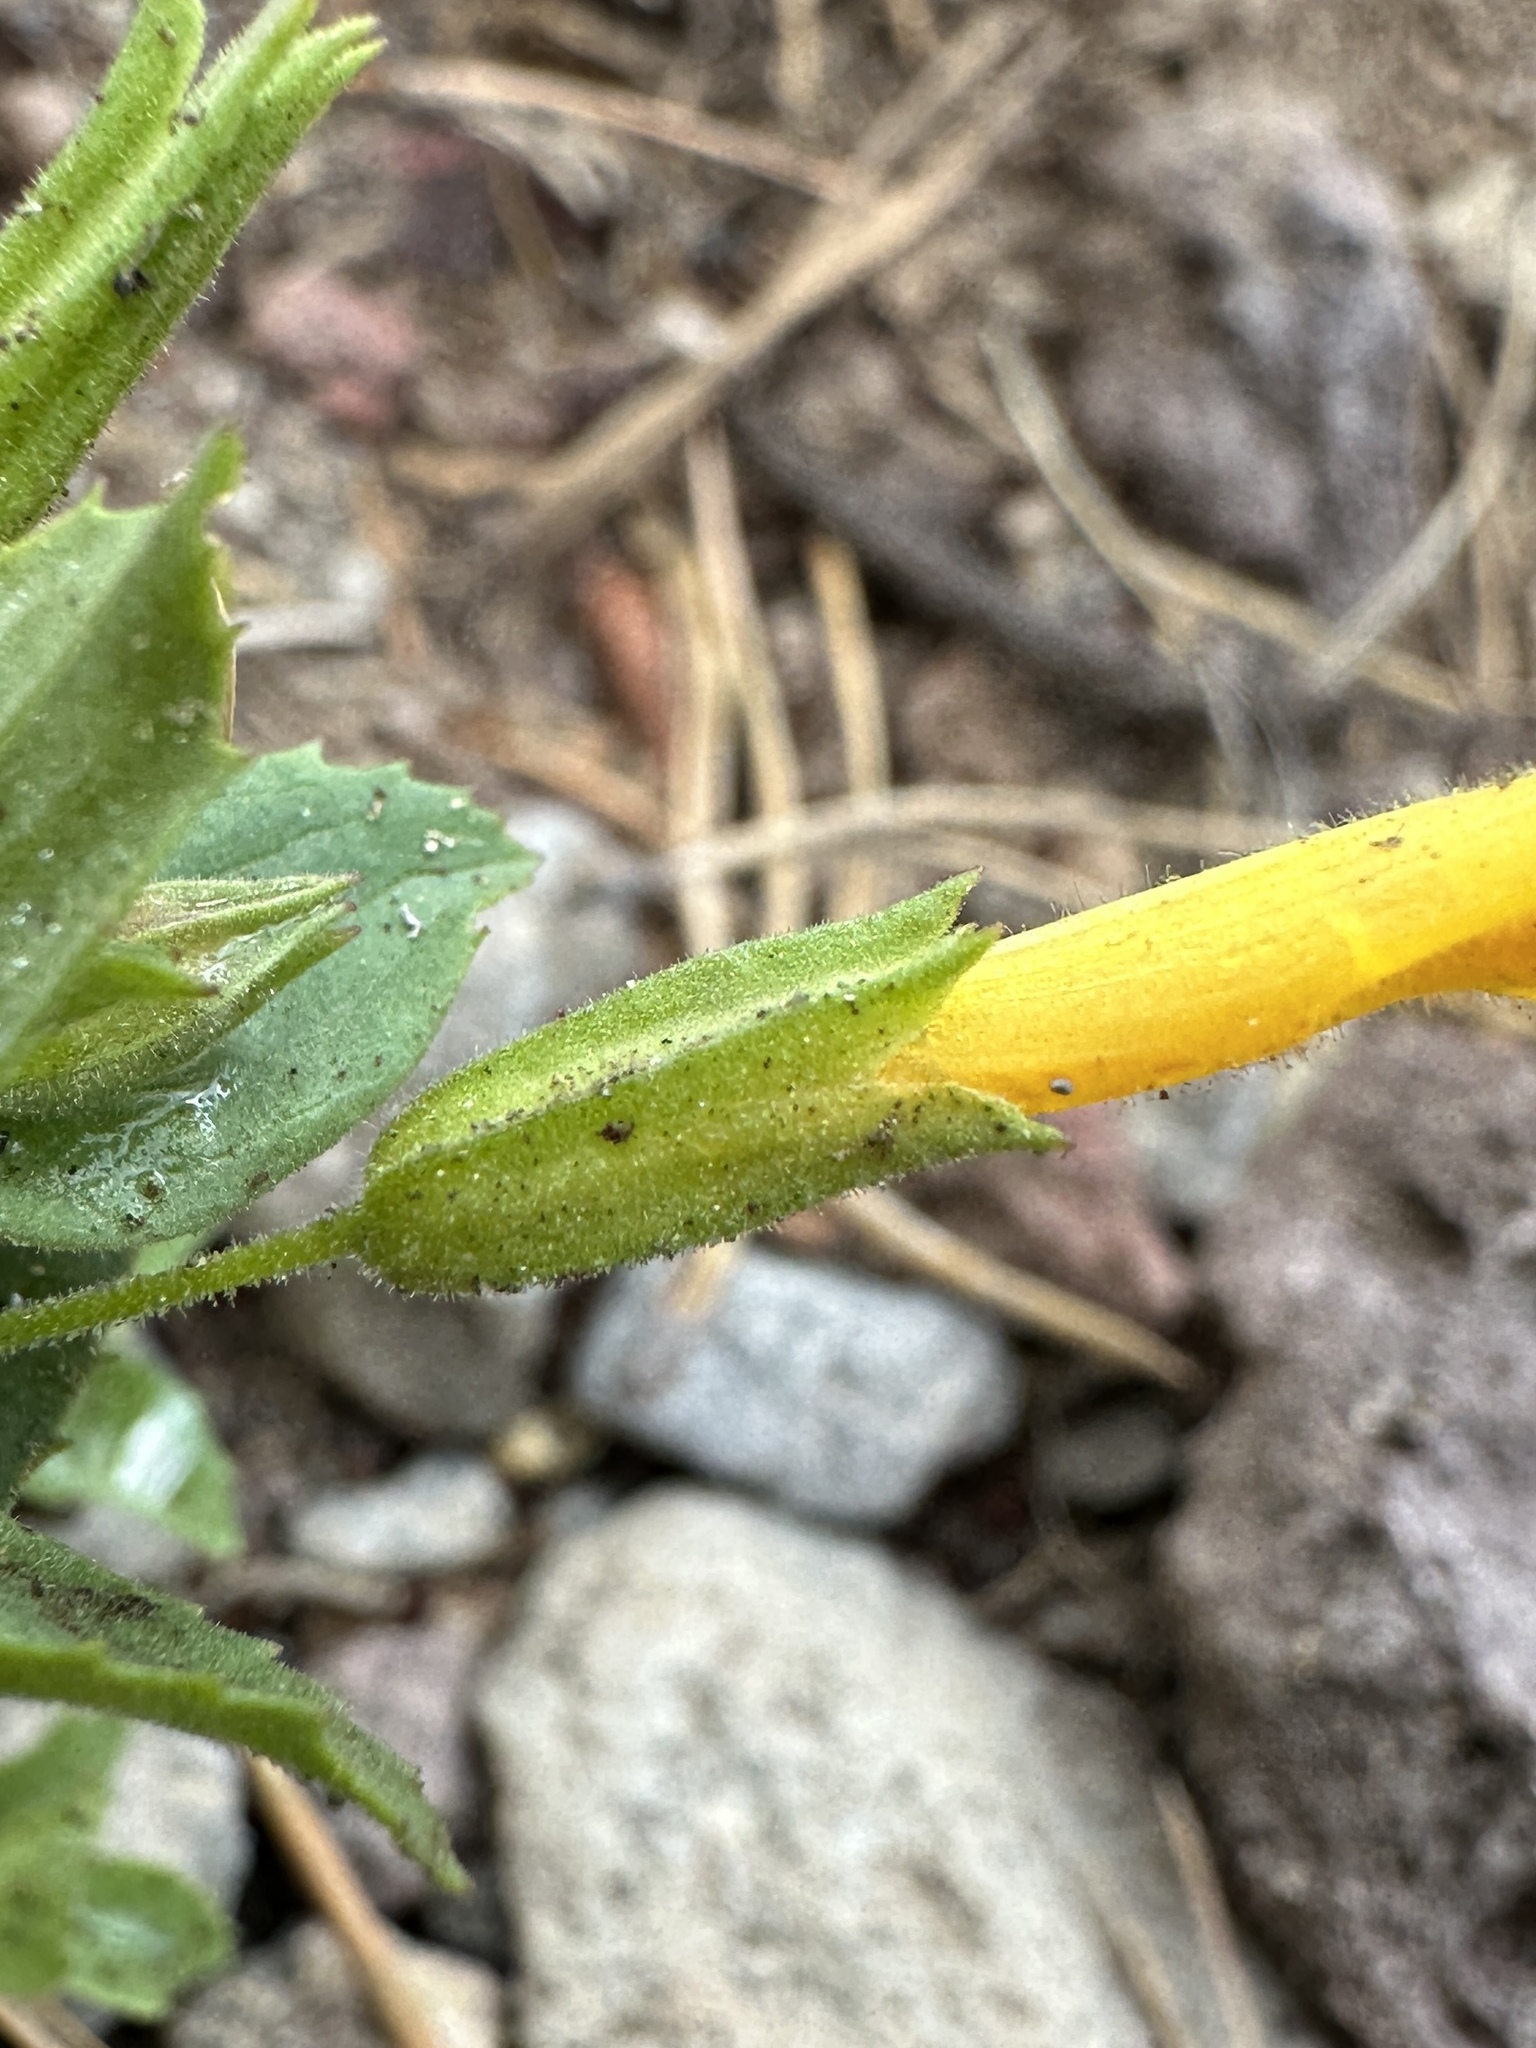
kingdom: Plantae
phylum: Tracheophyta
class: Magnoliopsida
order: Lamiales
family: Phrymaceae
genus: Erythranthe
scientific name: Erythranthe moschata
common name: Muskflower
